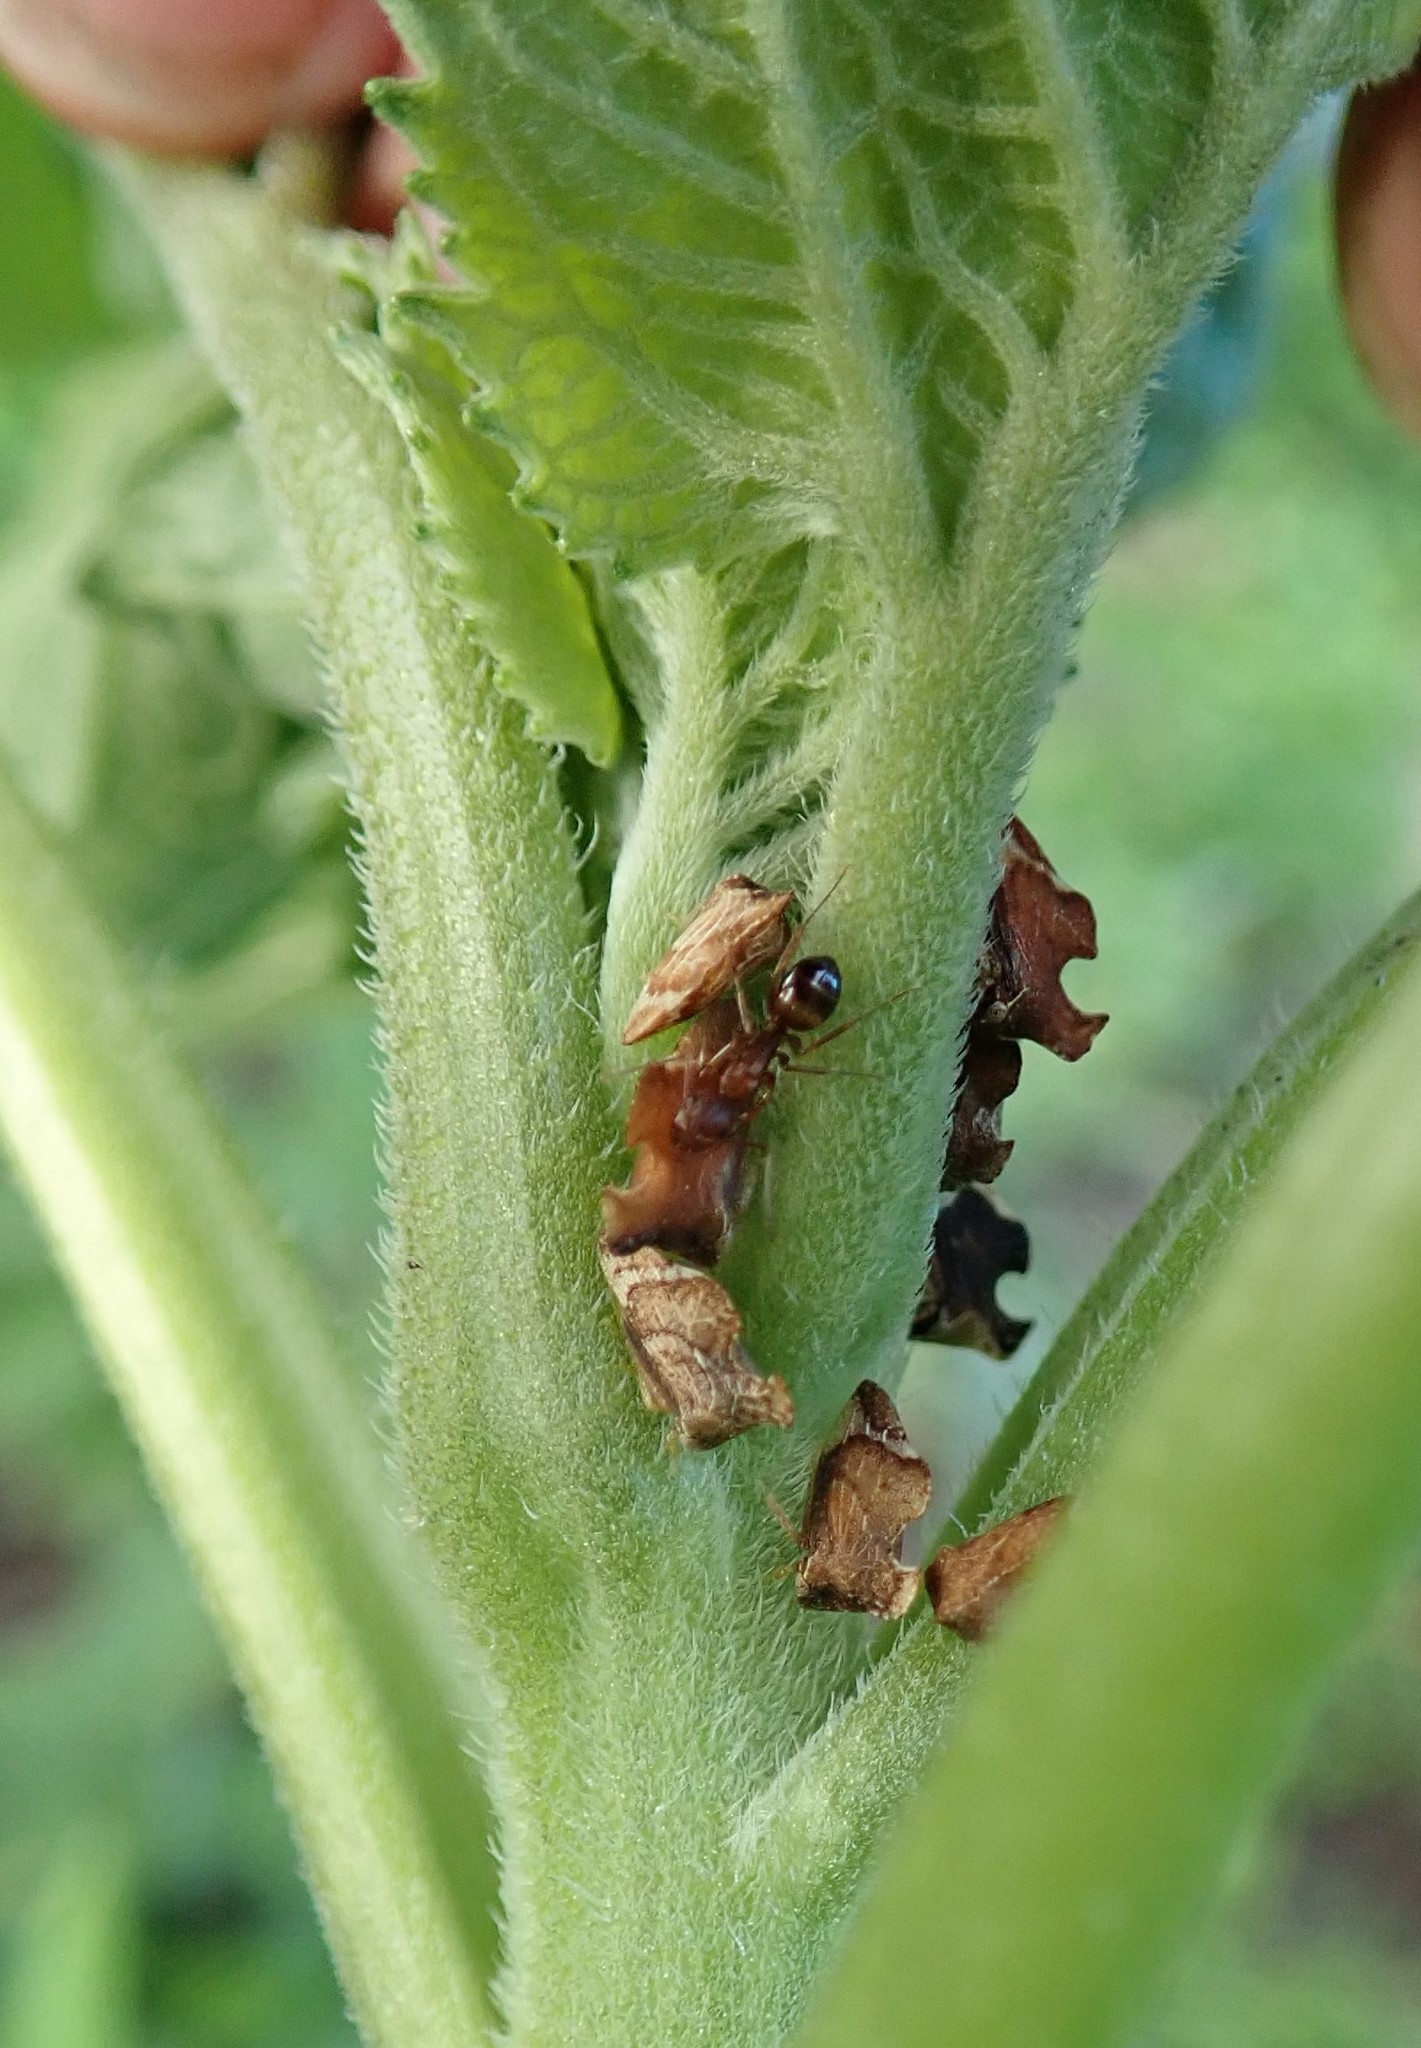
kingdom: Animalia
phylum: Arthropoda
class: Insecta
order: Hemiptera
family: Membracidae
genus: Entylia
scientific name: Entylia carinata
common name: Keeled treehopper
